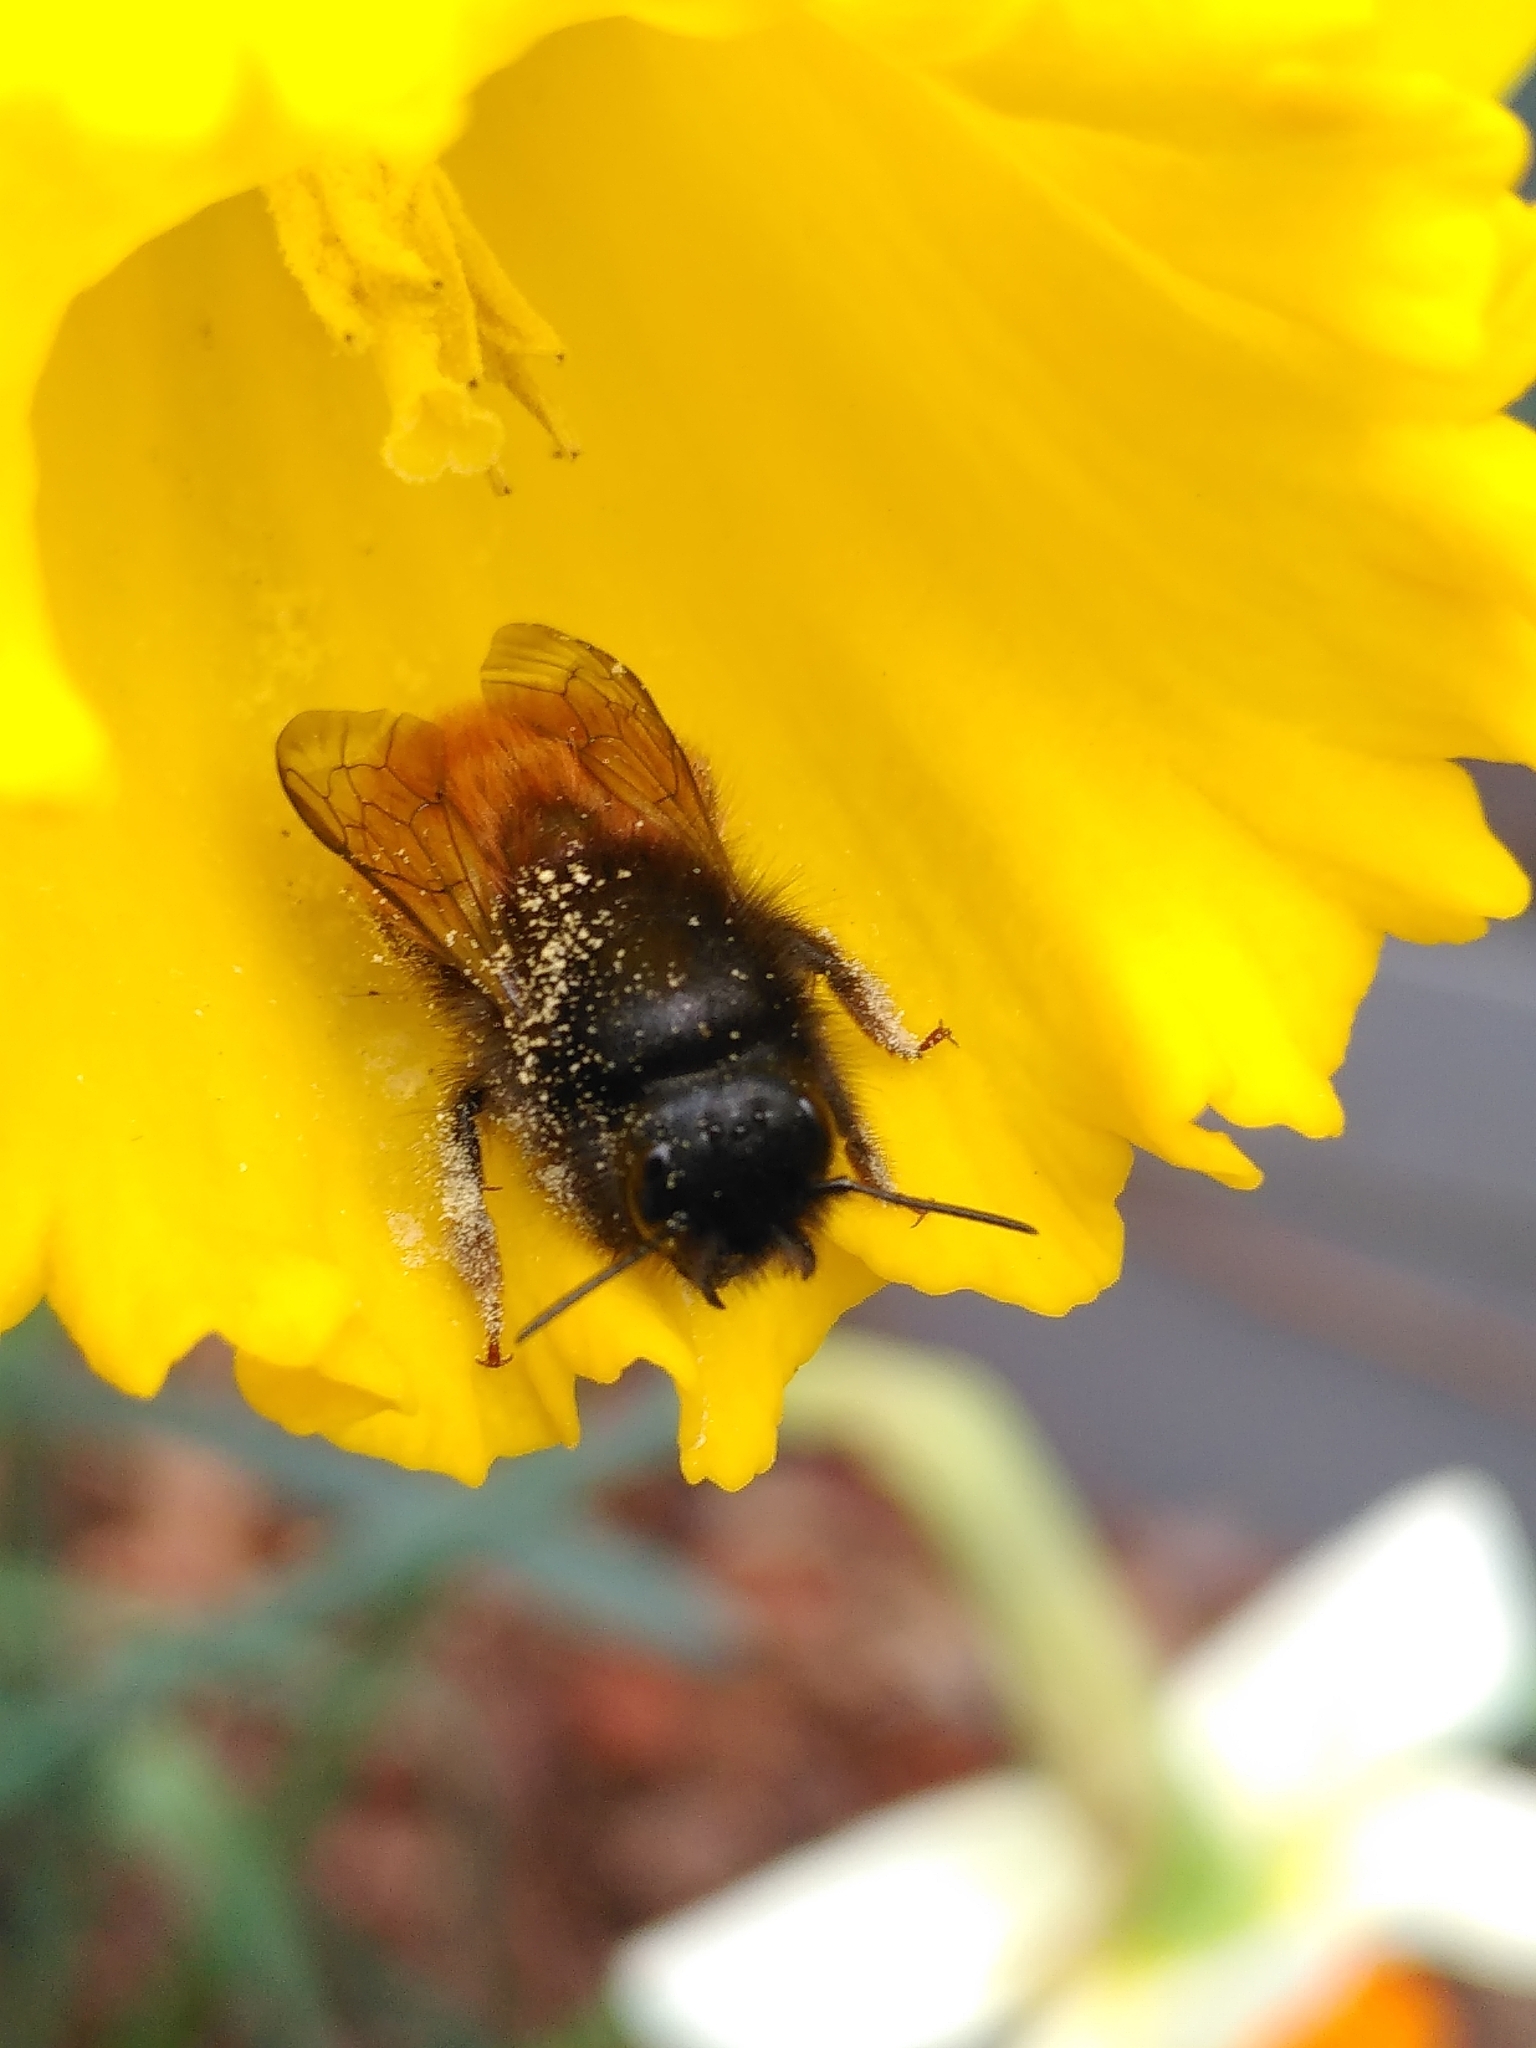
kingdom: Animalia
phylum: Arthropoda
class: Insecta
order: Hymenoptera
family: Megachilidae
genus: Osmia
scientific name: Osmia cornuta
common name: Mason bee
